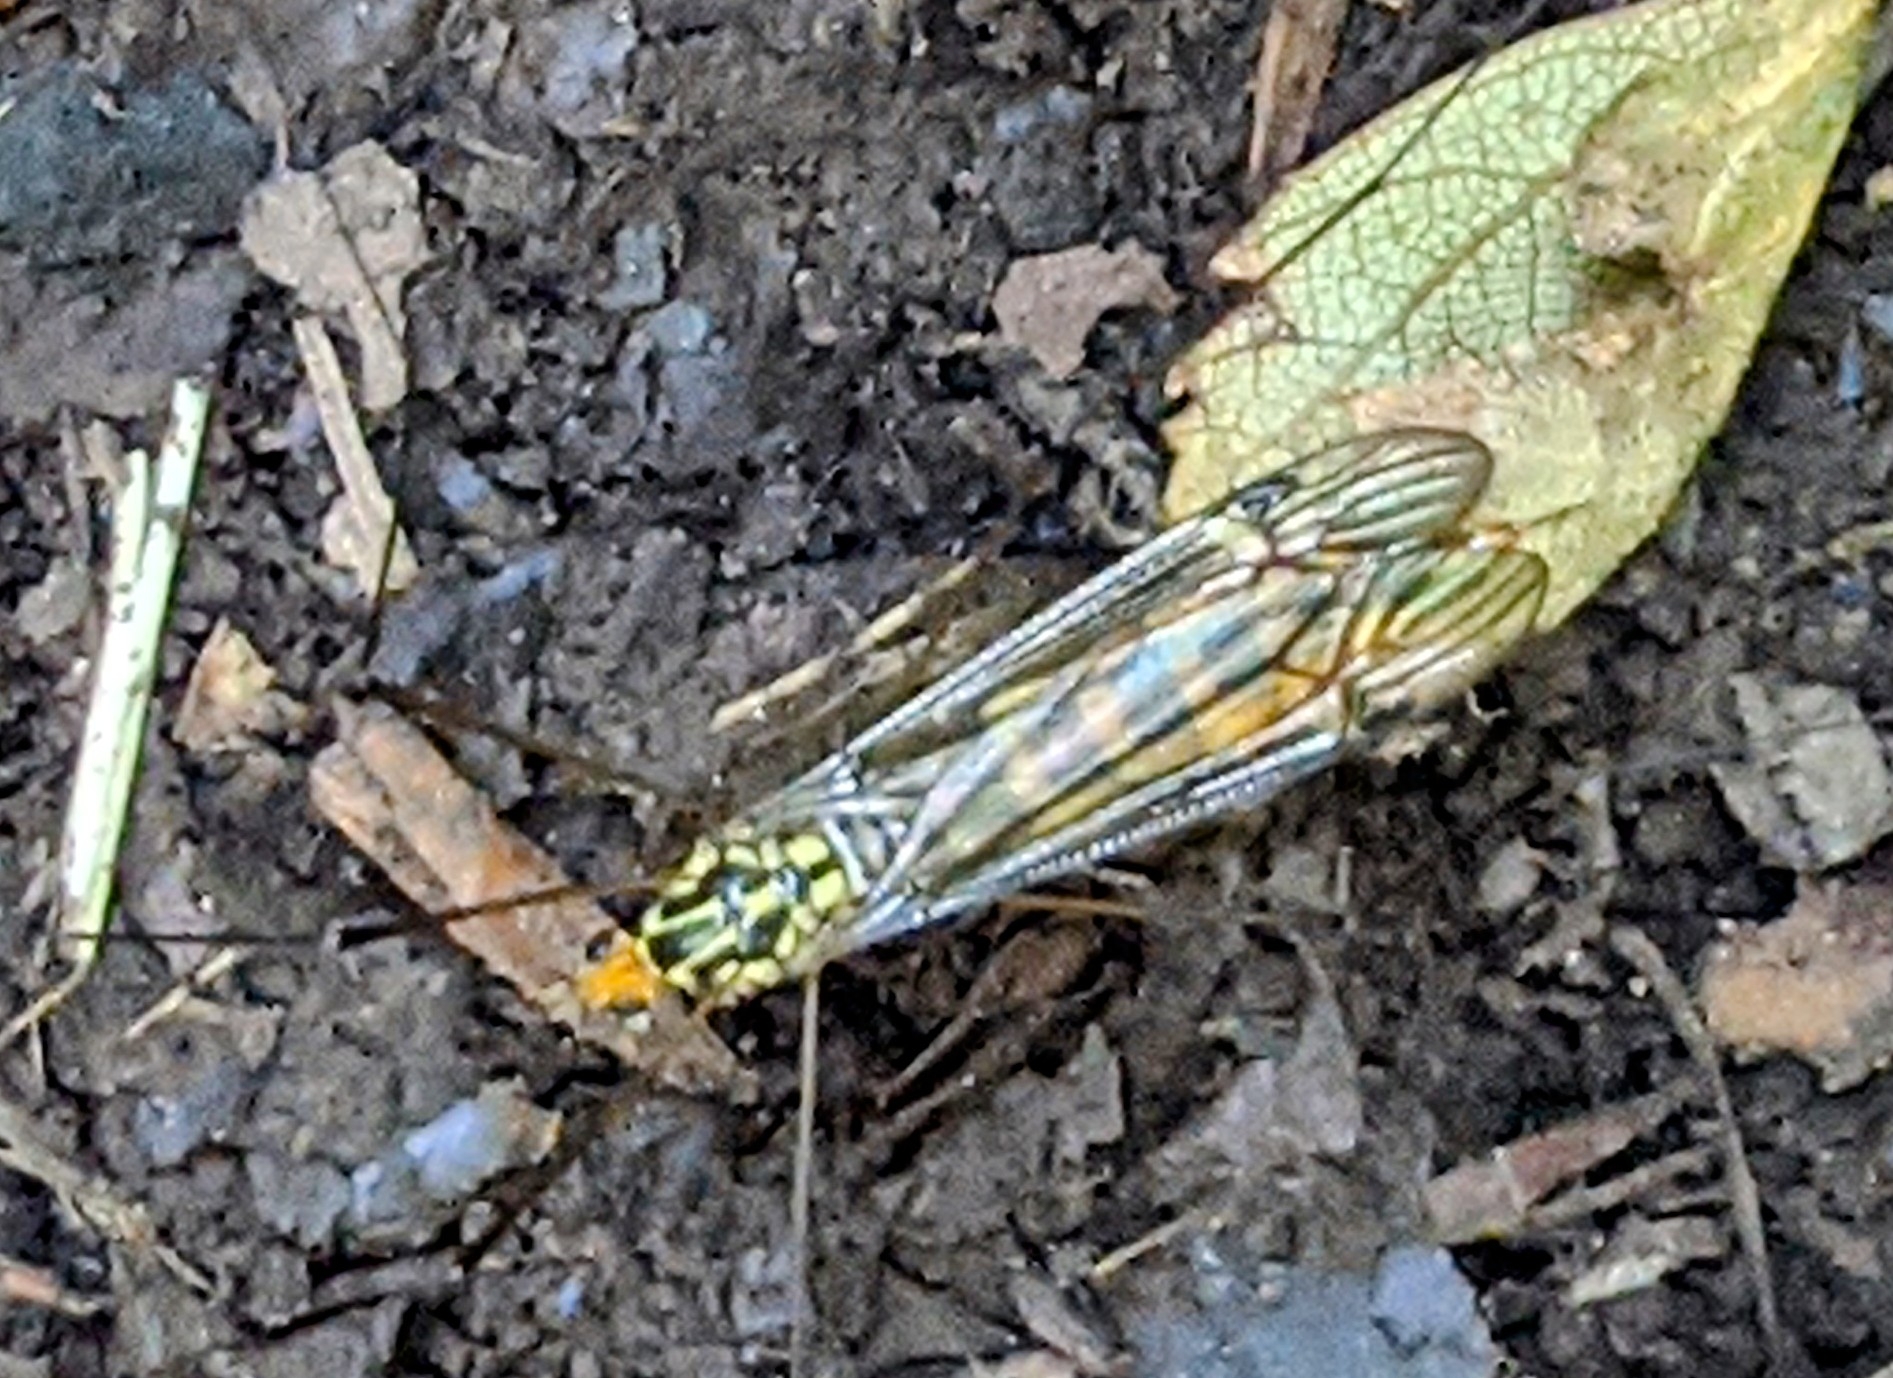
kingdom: Animalia
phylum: Arthropoda
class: Insecta
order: Diptera
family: Tipulidae
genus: Nephrotoma
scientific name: Nephrotoma flavipalpis
